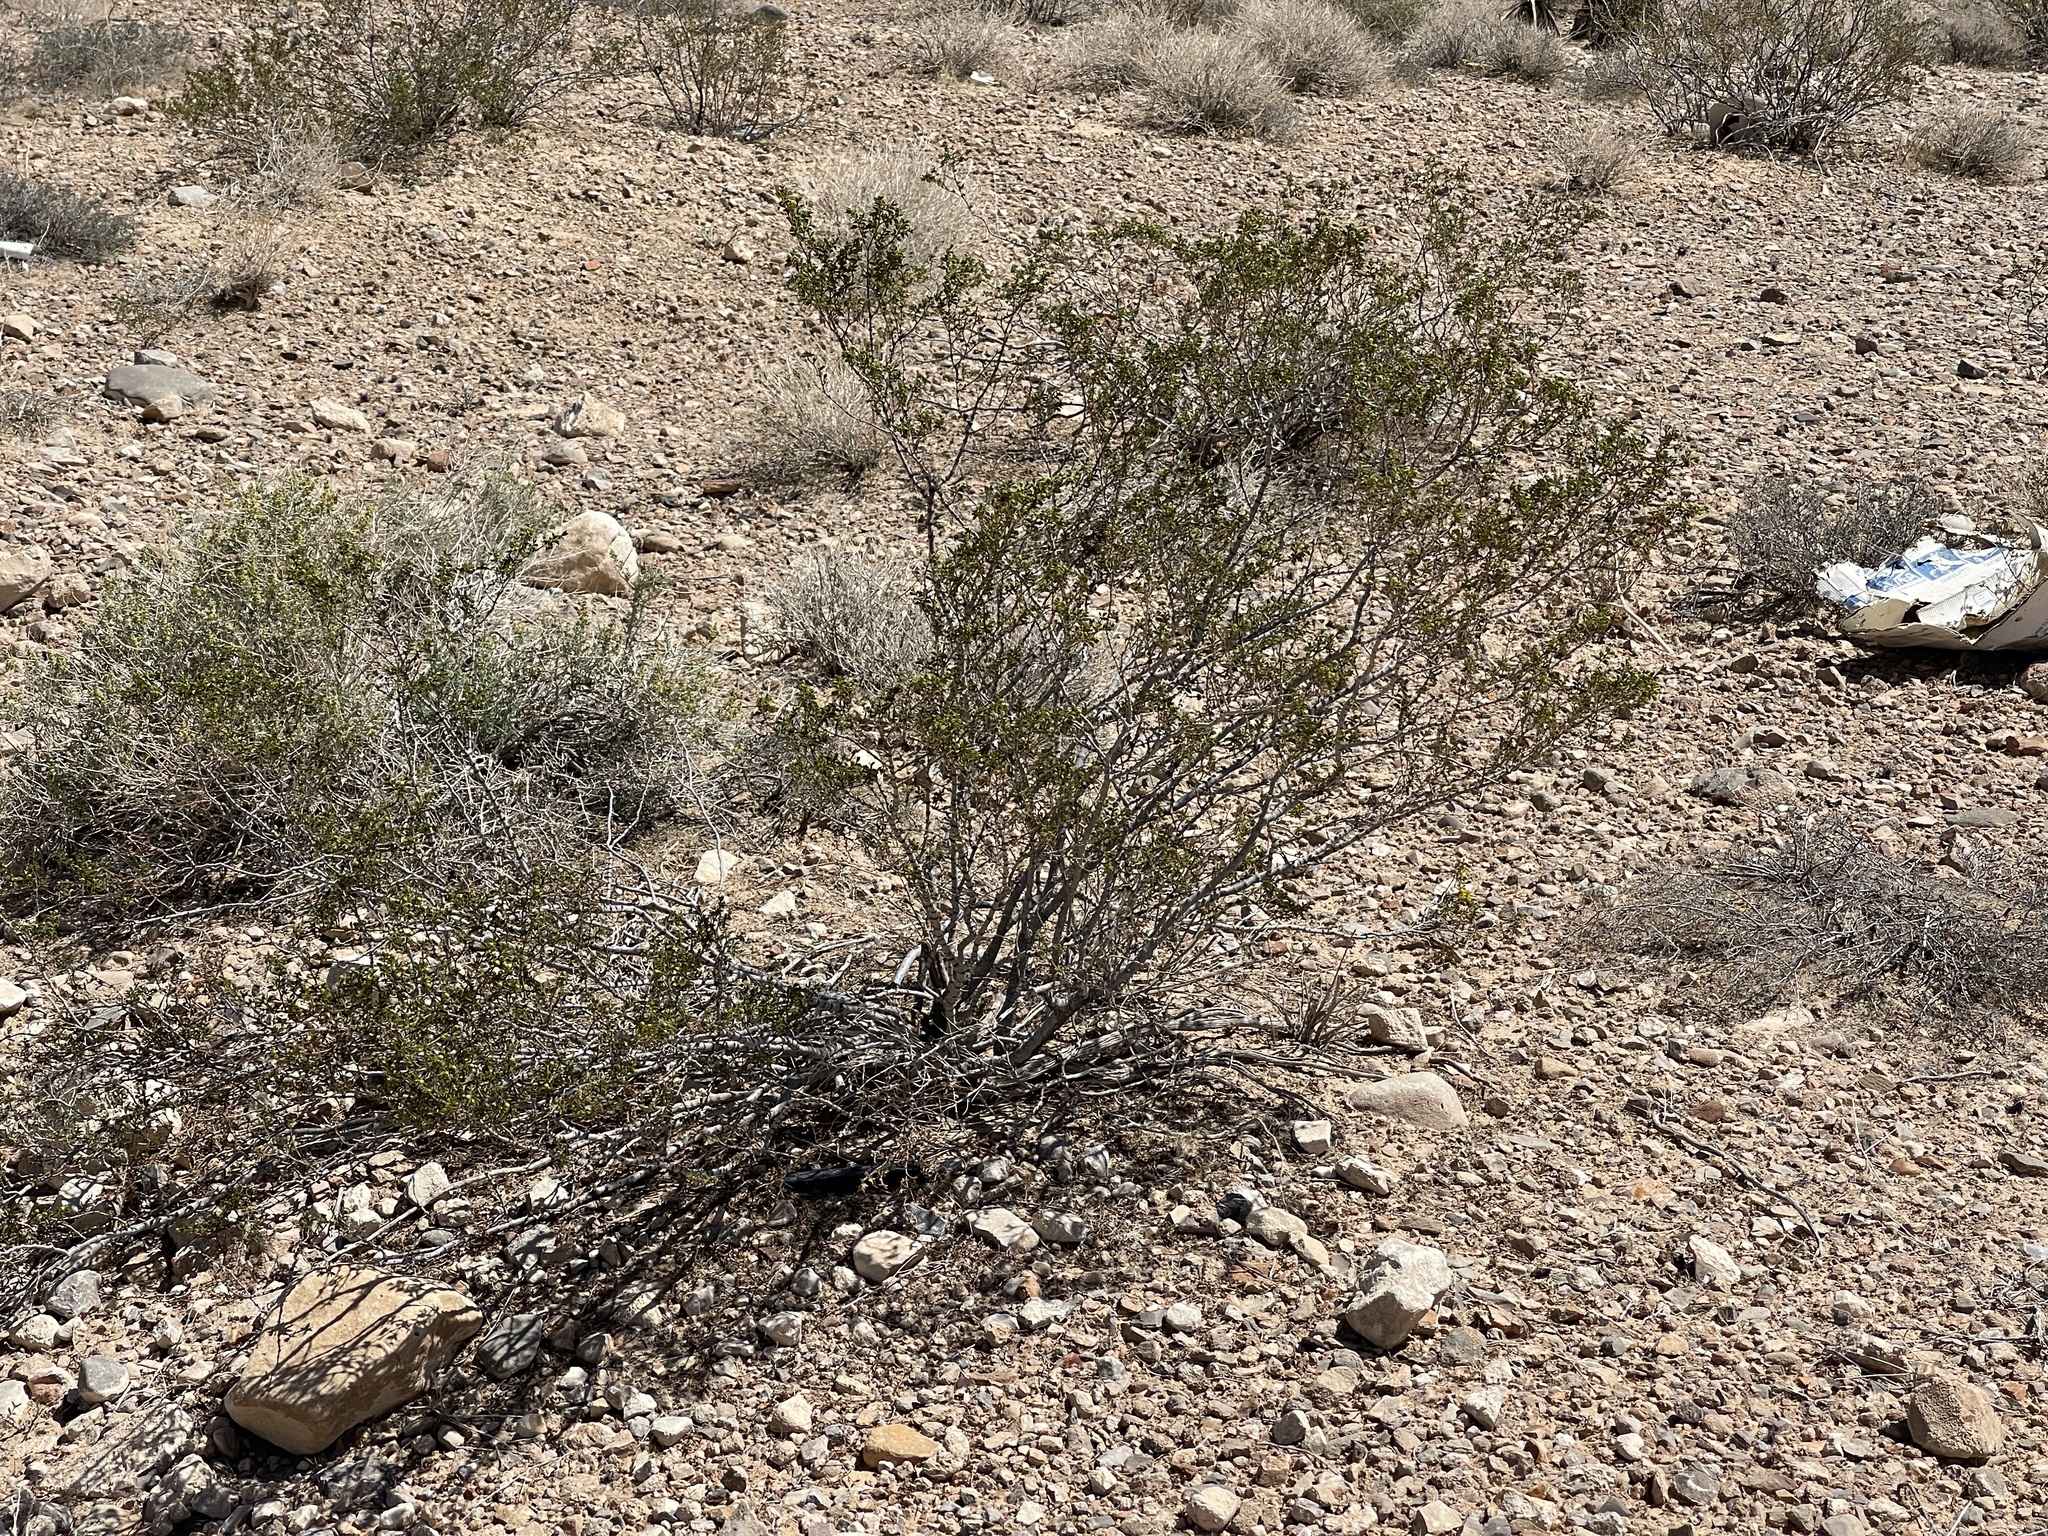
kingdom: Plantae
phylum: Tracheophyta
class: Magnoliopsida
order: Zygophyllales
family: Zygophyllaceae
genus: Larrea
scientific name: Larrea tridentata
